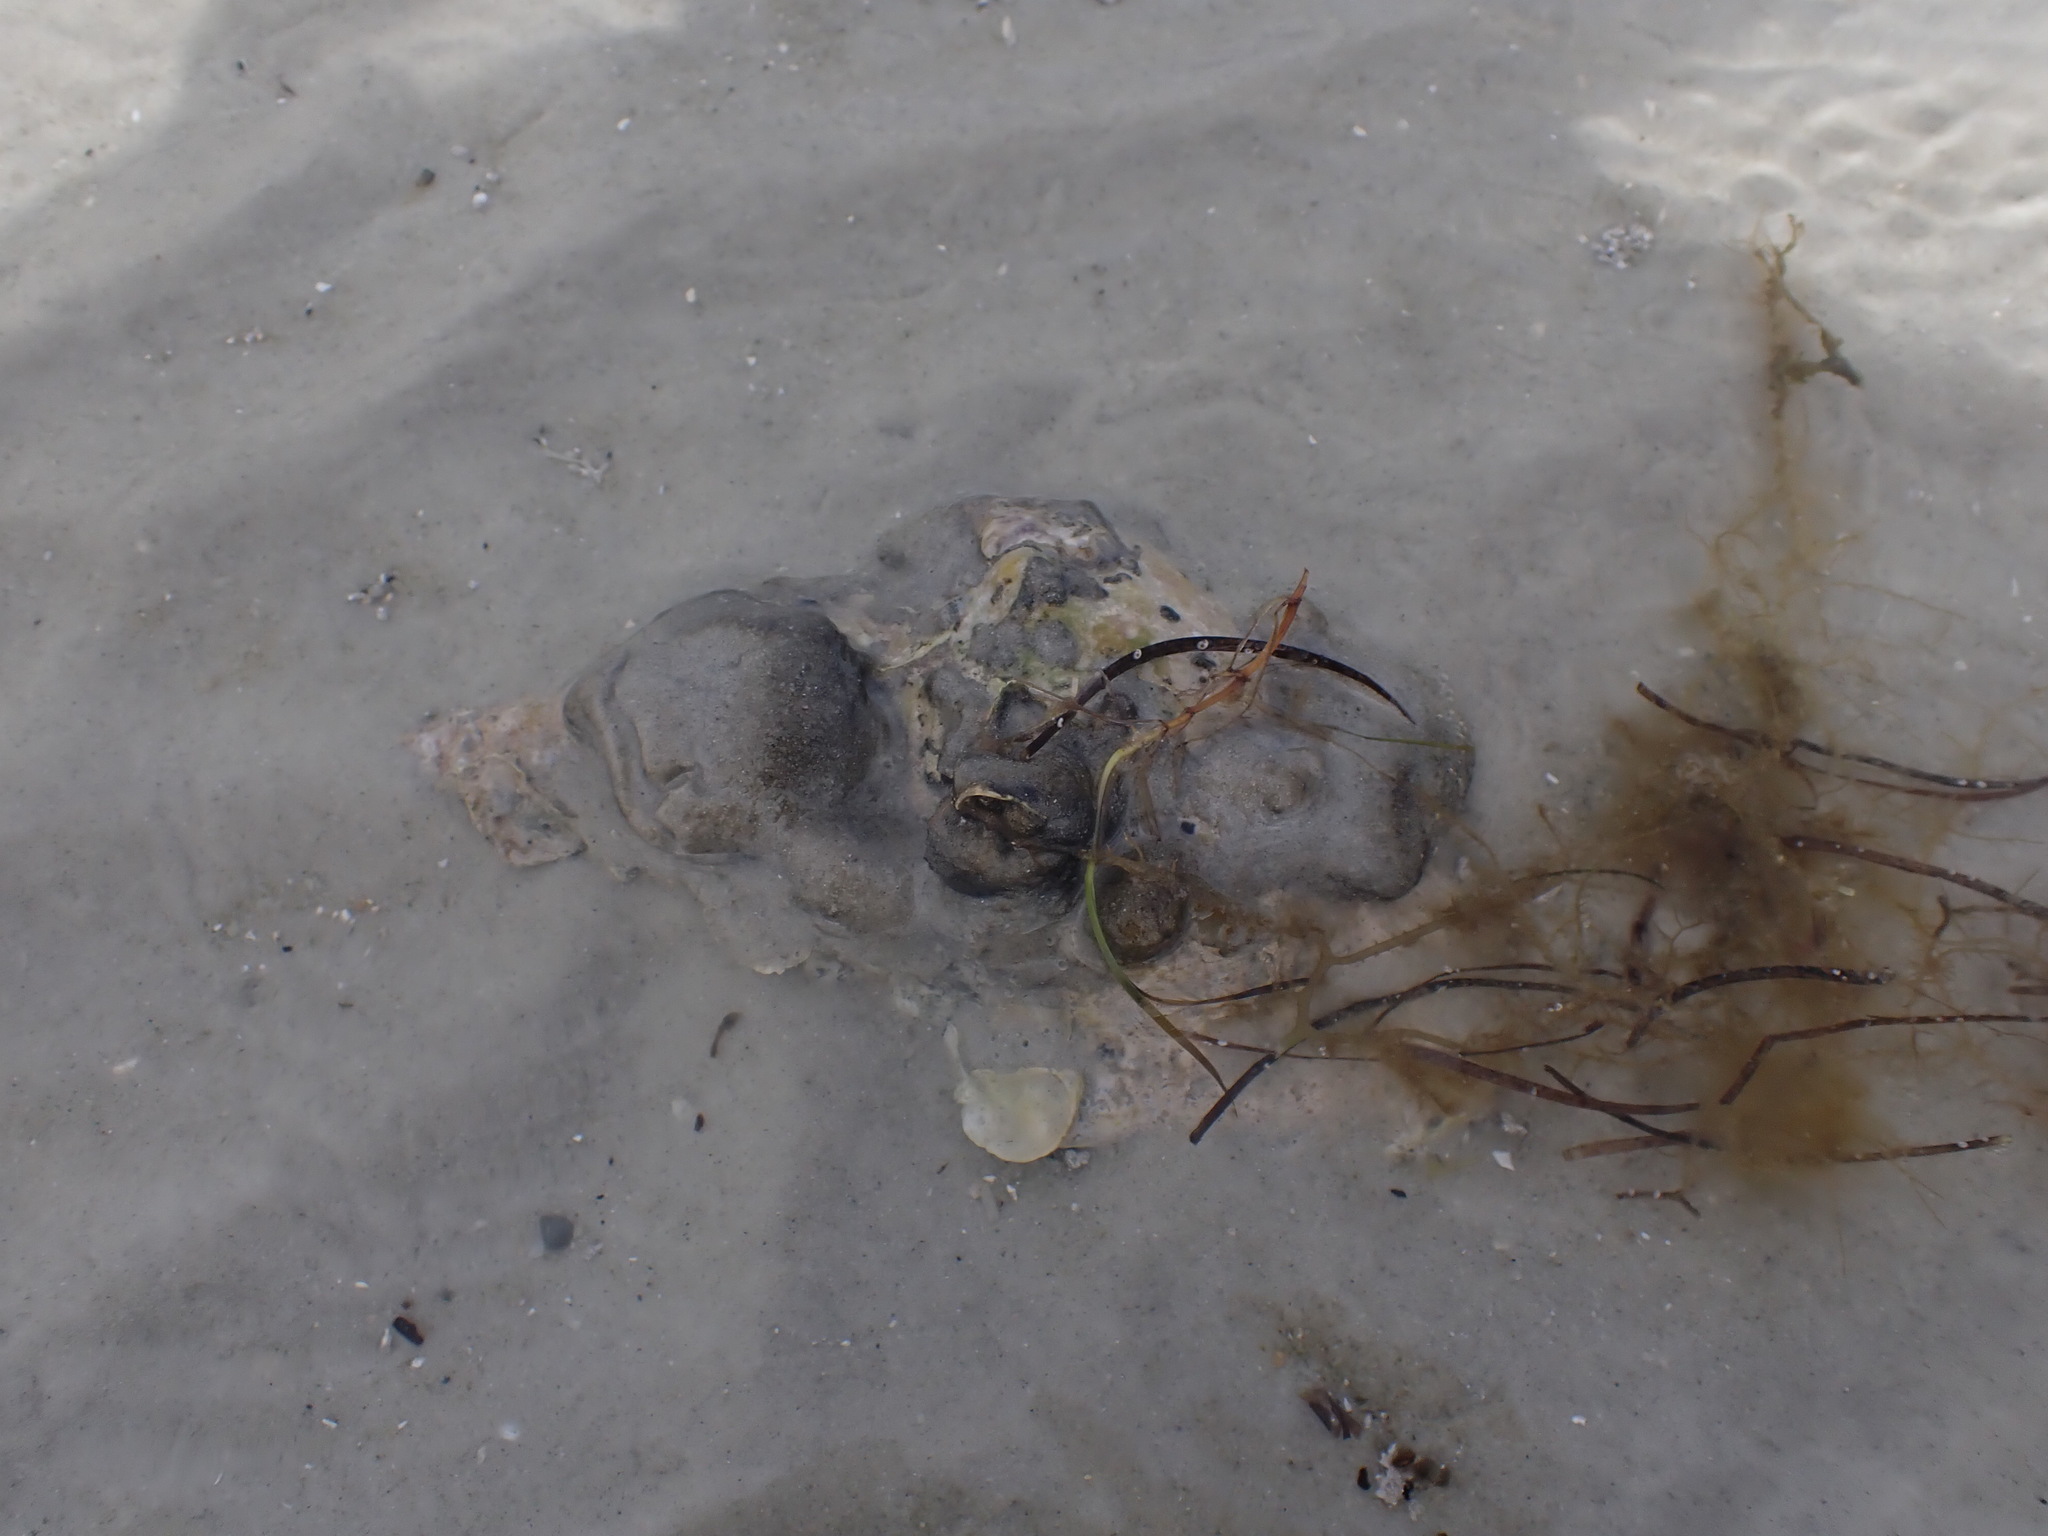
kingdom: Animalia
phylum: Mollusca
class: Gastropoda
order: Littorinimorpha
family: Charoniidae
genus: Charonia
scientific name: Charonia lampas
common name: Knobbed triton
